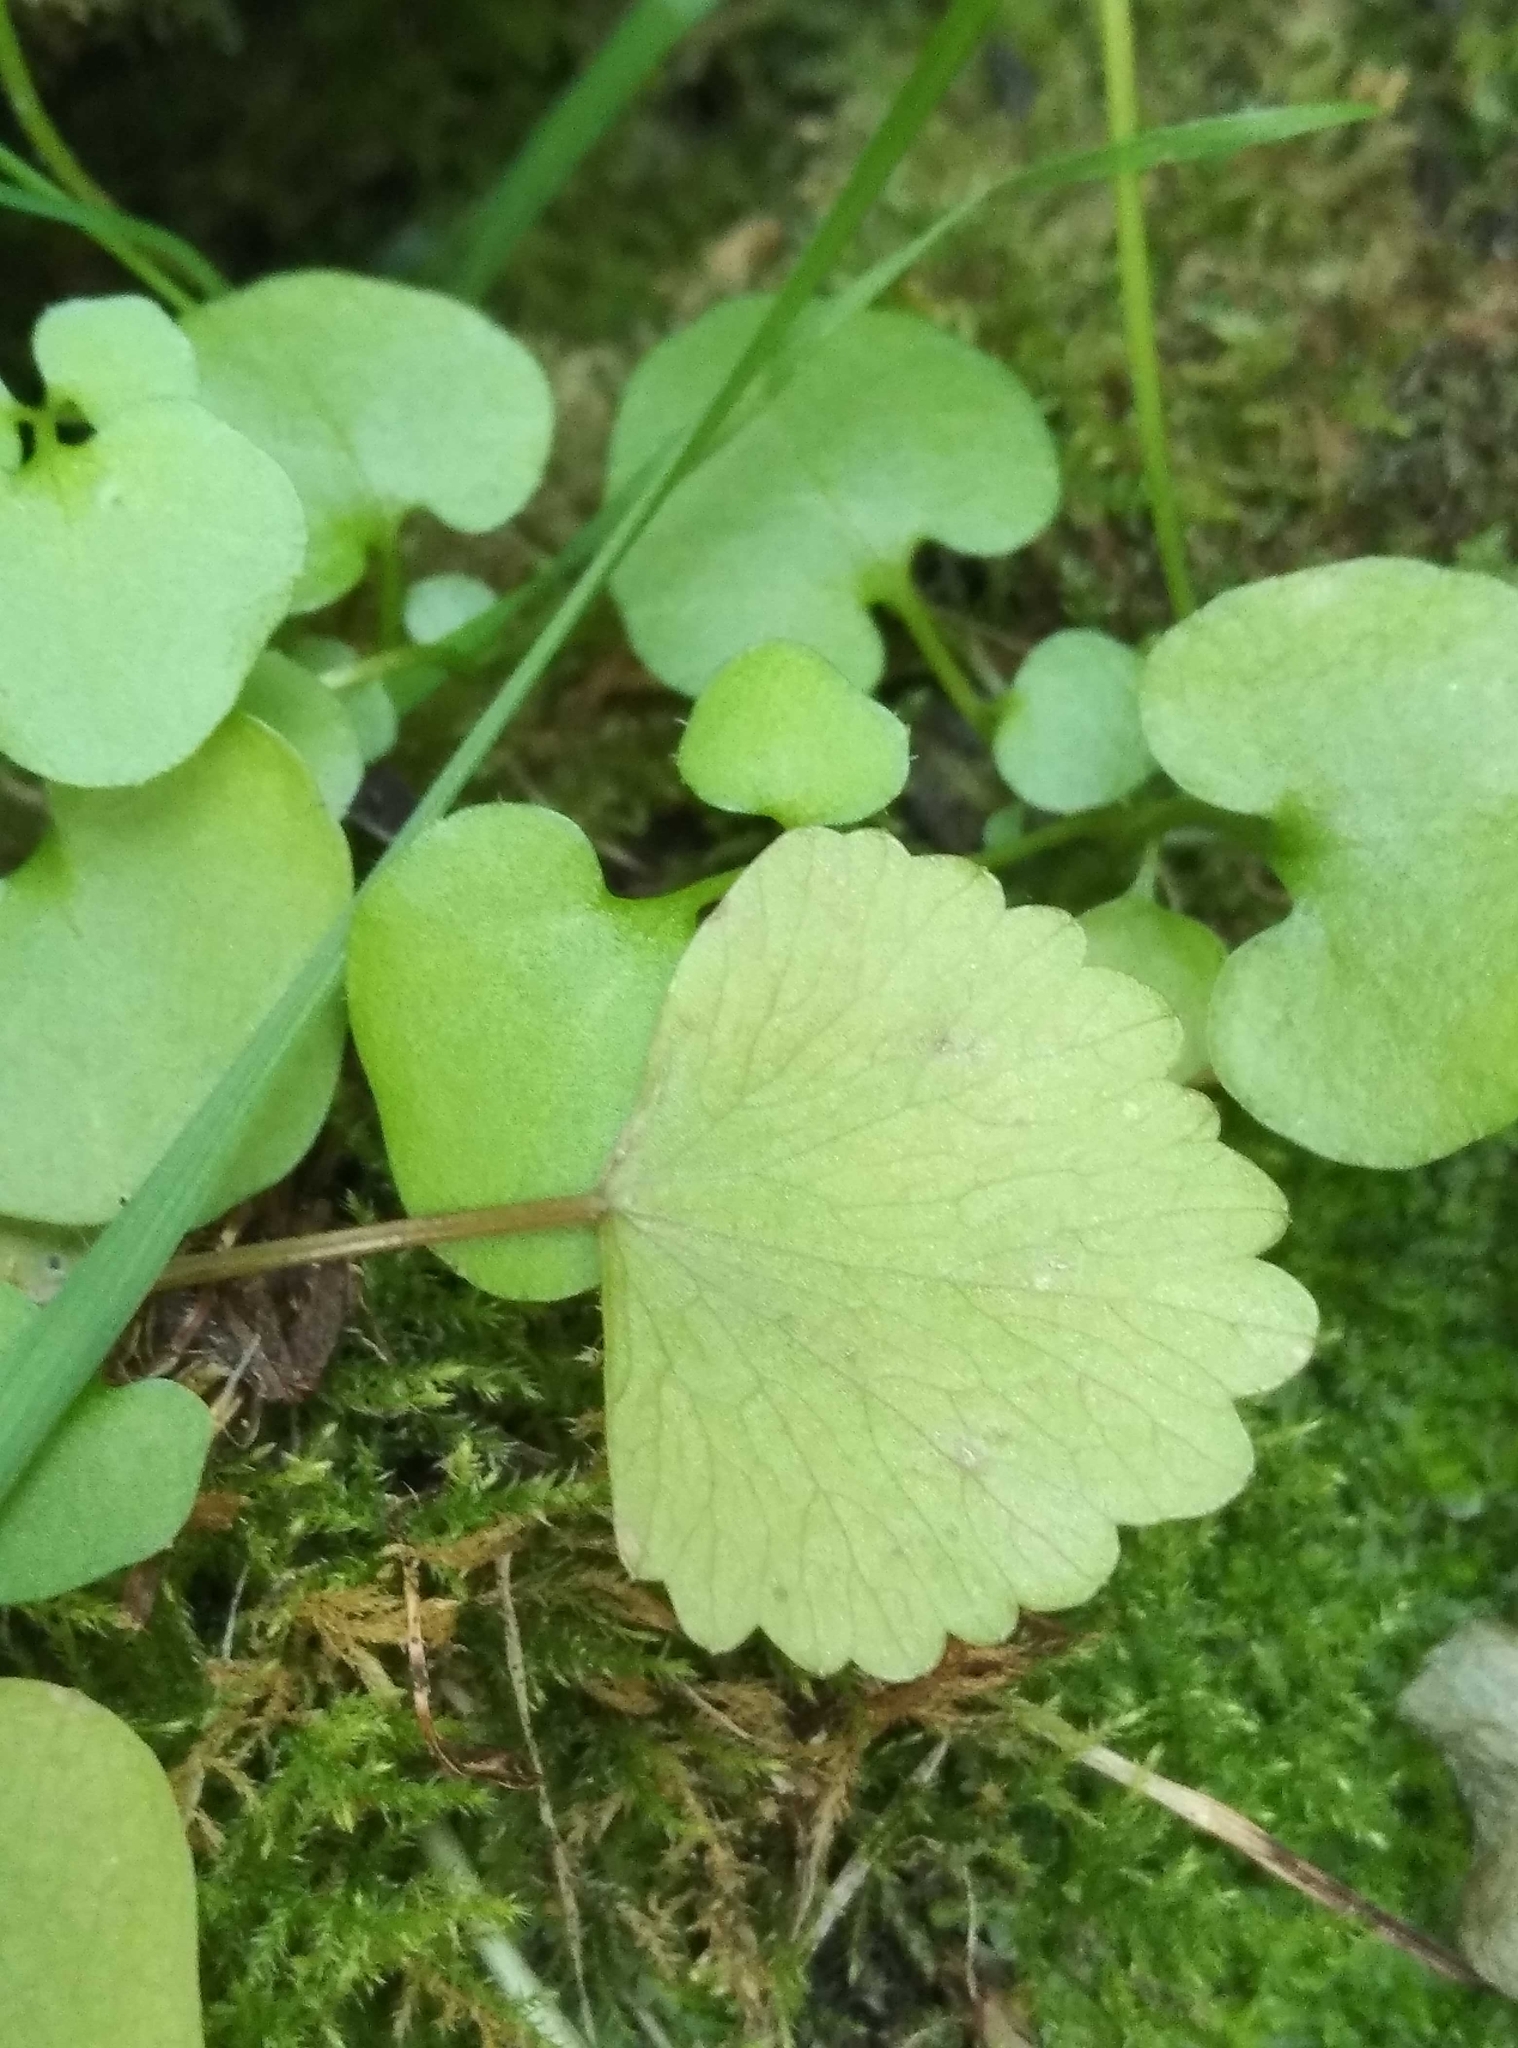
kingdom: Plantae
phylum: Tracheophyta
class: Magnoliopsida
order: Apiales
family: Apiaceae
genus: Scandia
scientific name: Scandia geniculata
